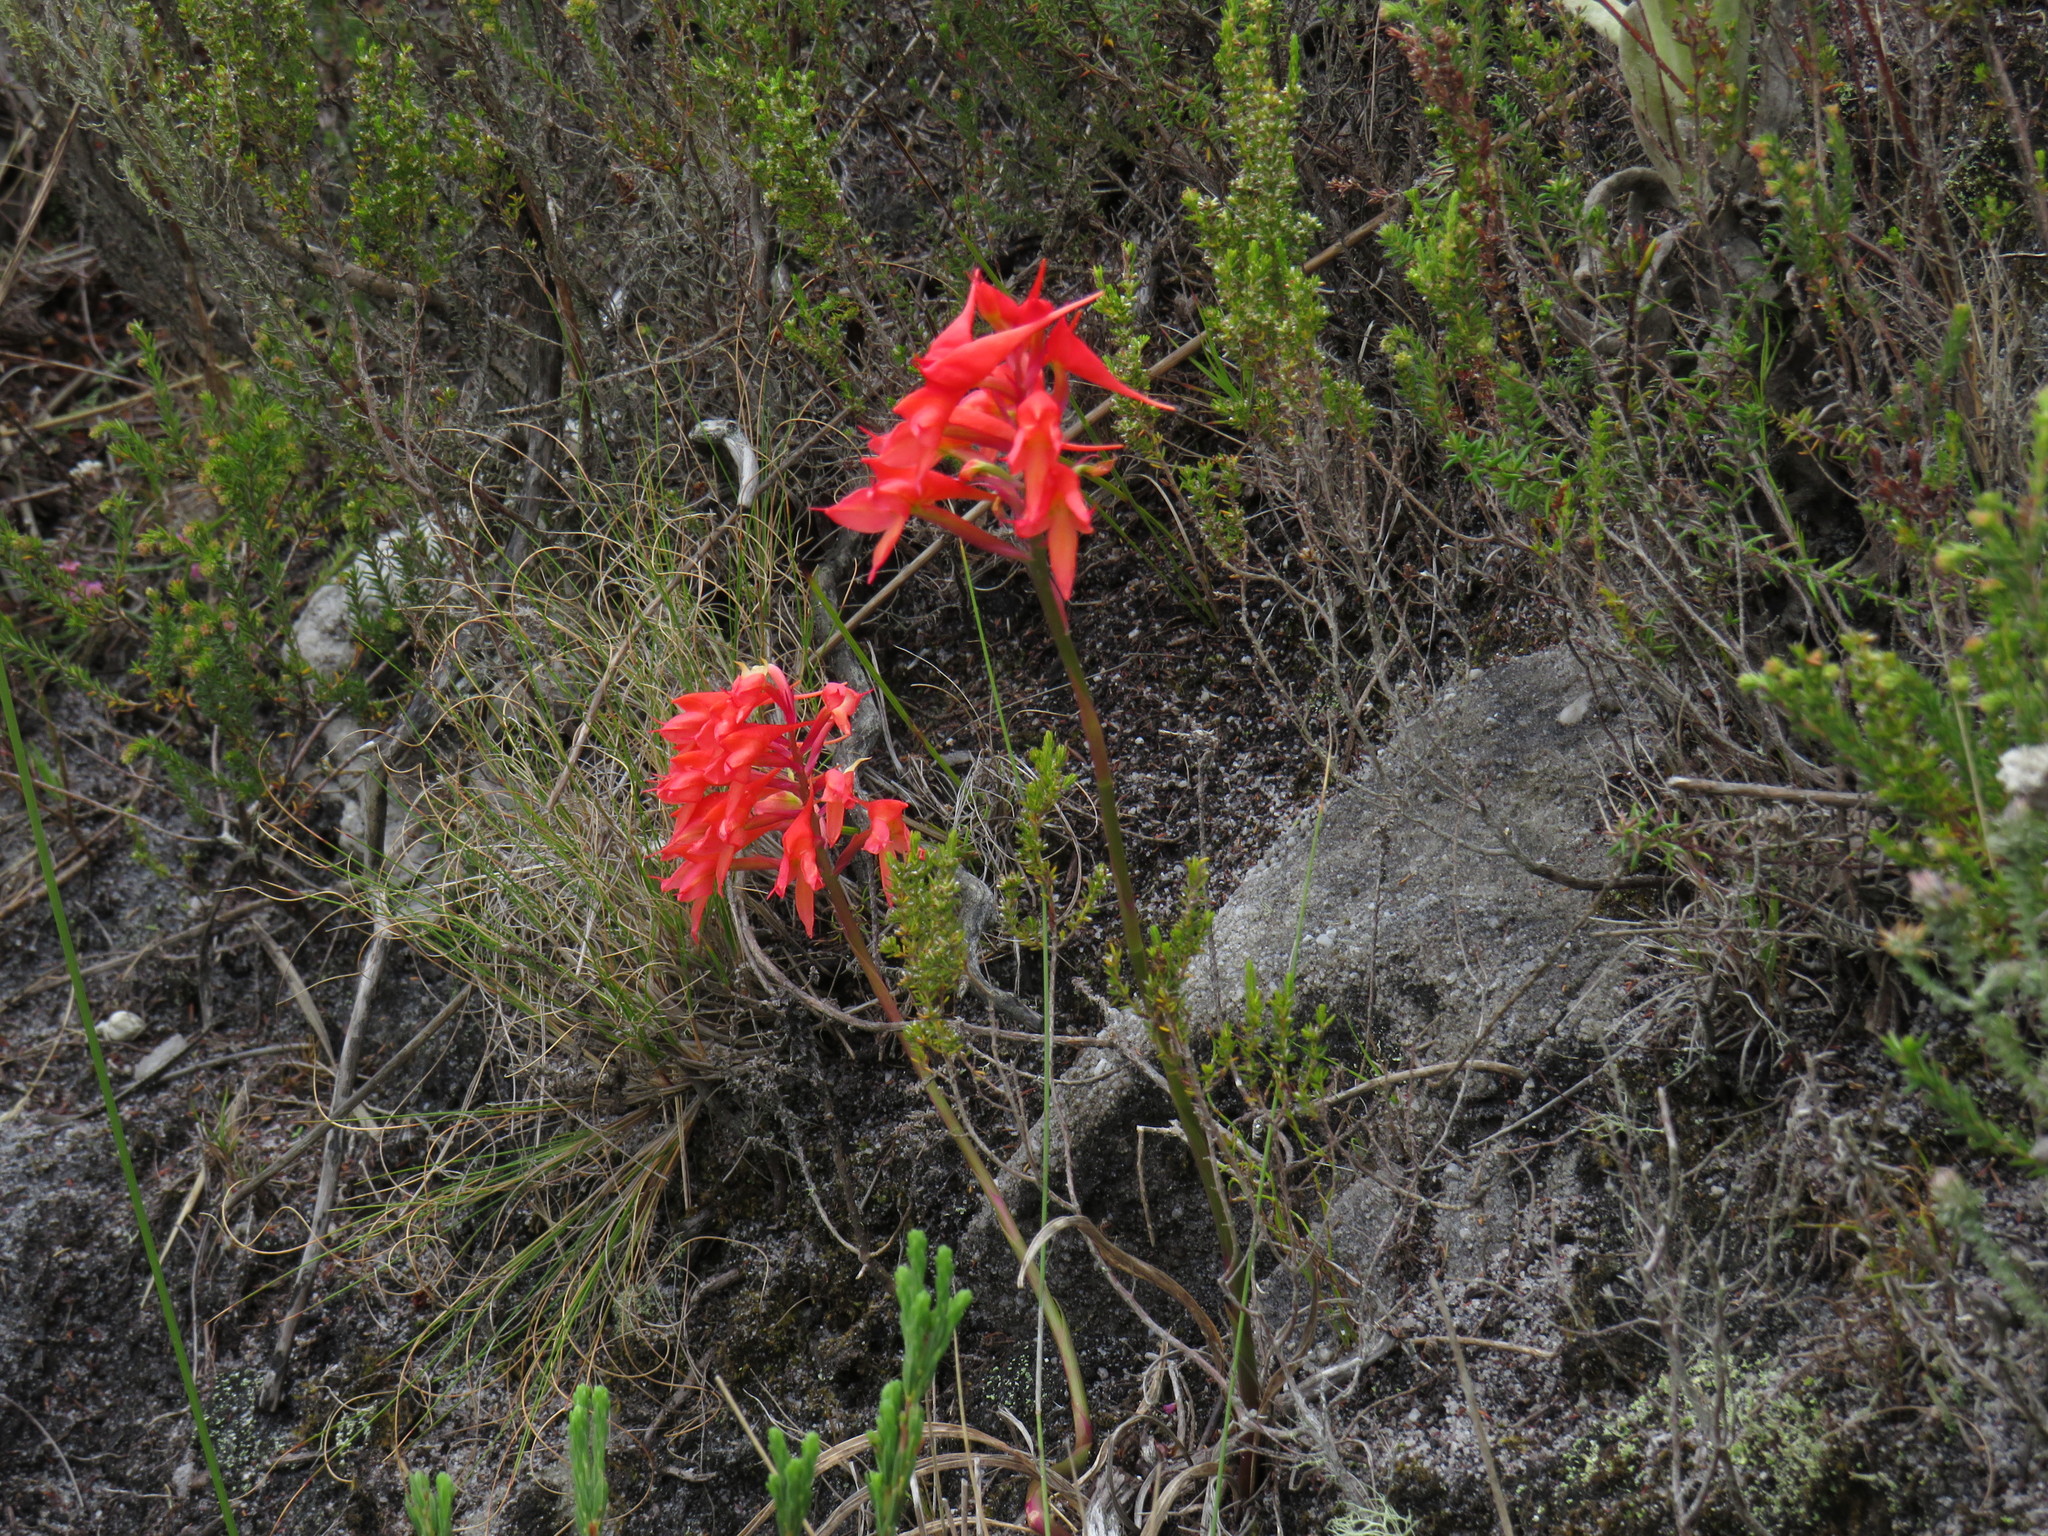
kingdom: Plantae
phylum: Tracheophyta
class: Liliopsida
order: Asparagales
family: Orchidaceae
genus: Disa
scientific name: Disa ferruginea
